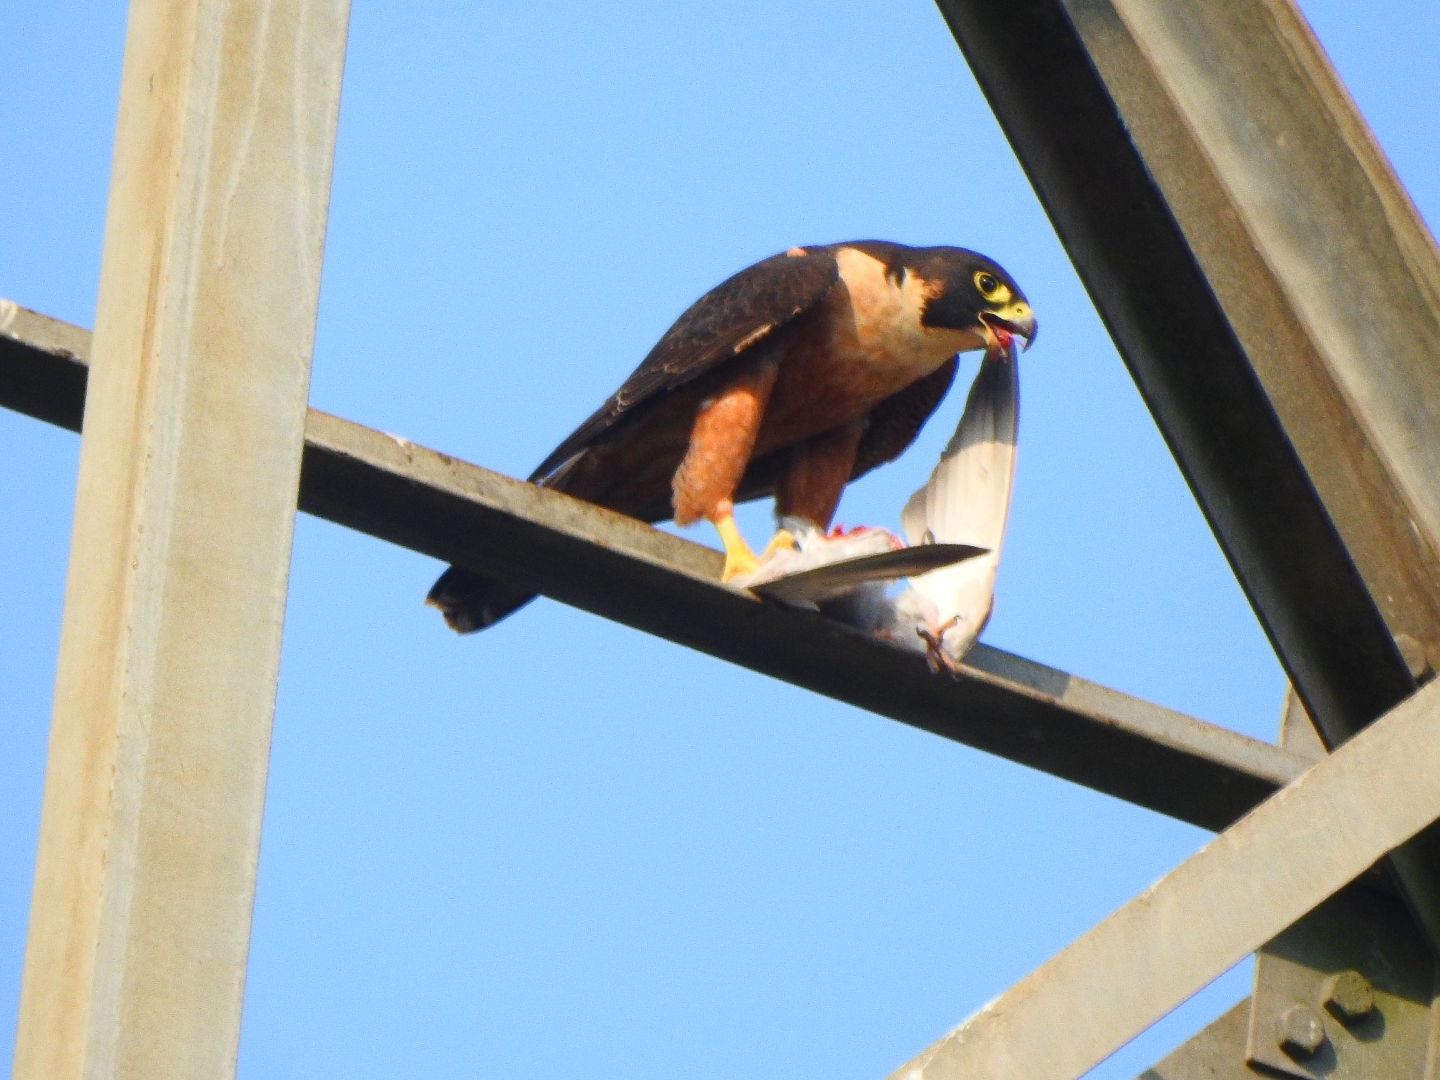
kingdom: Animalia
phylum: Chordata
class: Aves
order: Falconiformes
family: Falconidae
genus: Falco
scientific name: Falco peregrinus
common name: Peregrine falcon
